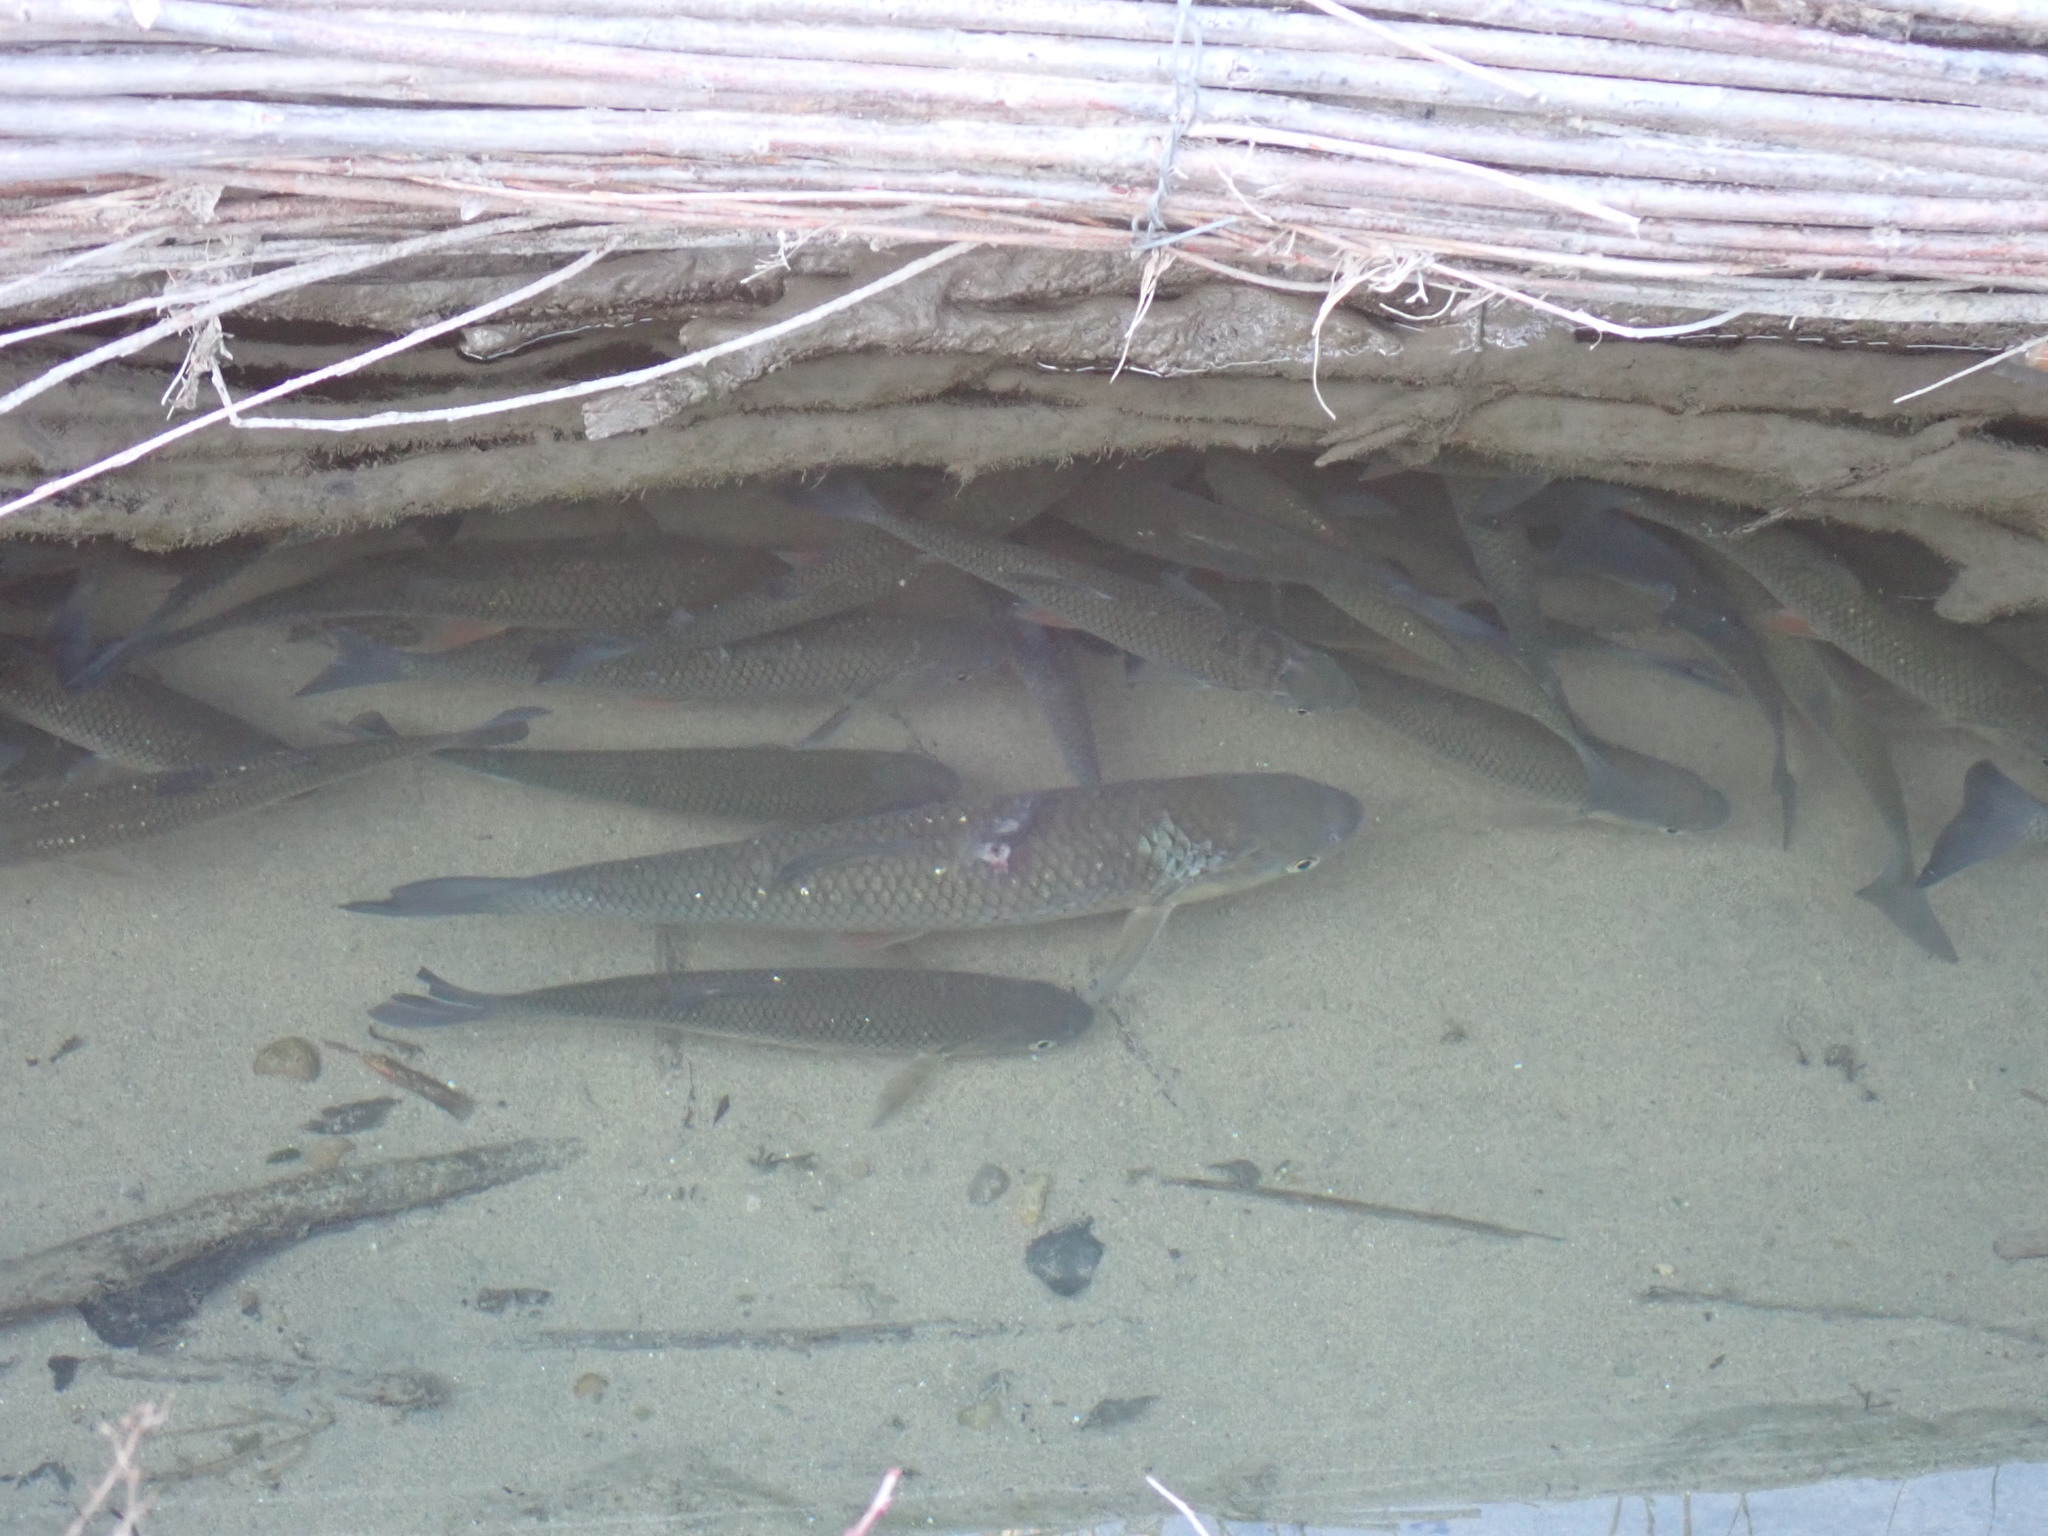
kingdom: Animalia
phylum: Chordata
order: Cypriniformes
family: Cyprinidae
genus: Squalius
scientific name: Squalius cephalus
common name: Chub
